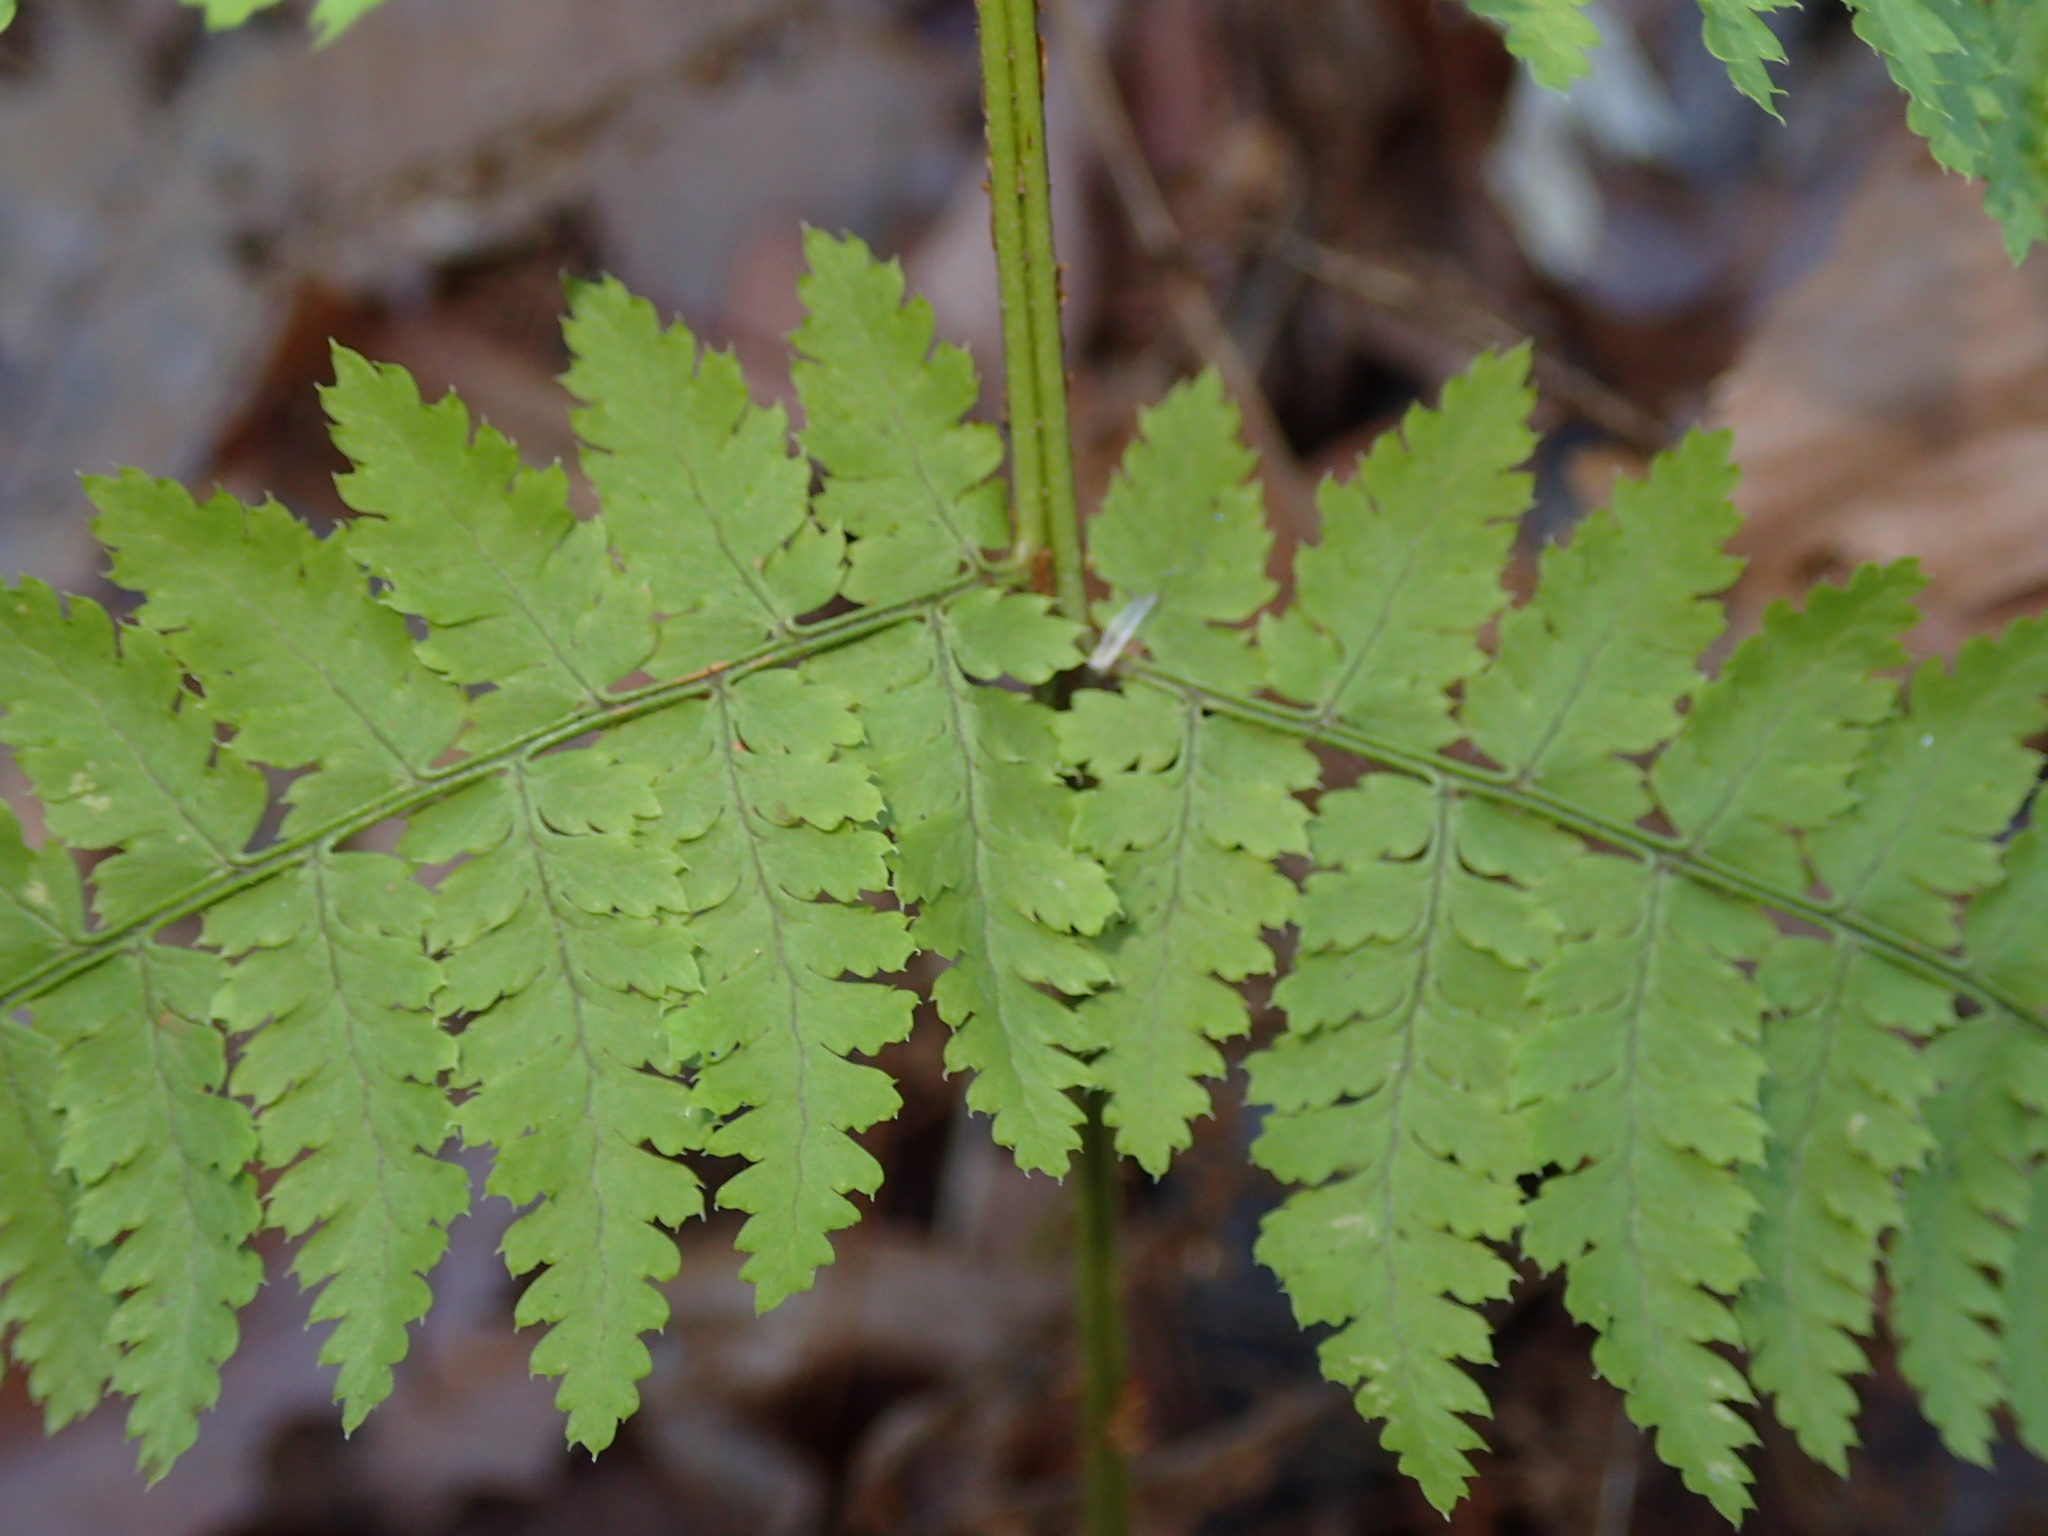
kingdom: Plantae
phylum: Tracheophyta
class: Polypodiopsida
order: Polypodiales
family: Dryopteridaceae
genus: Dryopteris
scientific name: Dryopteris intermedia
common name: Evergreen wood fern
